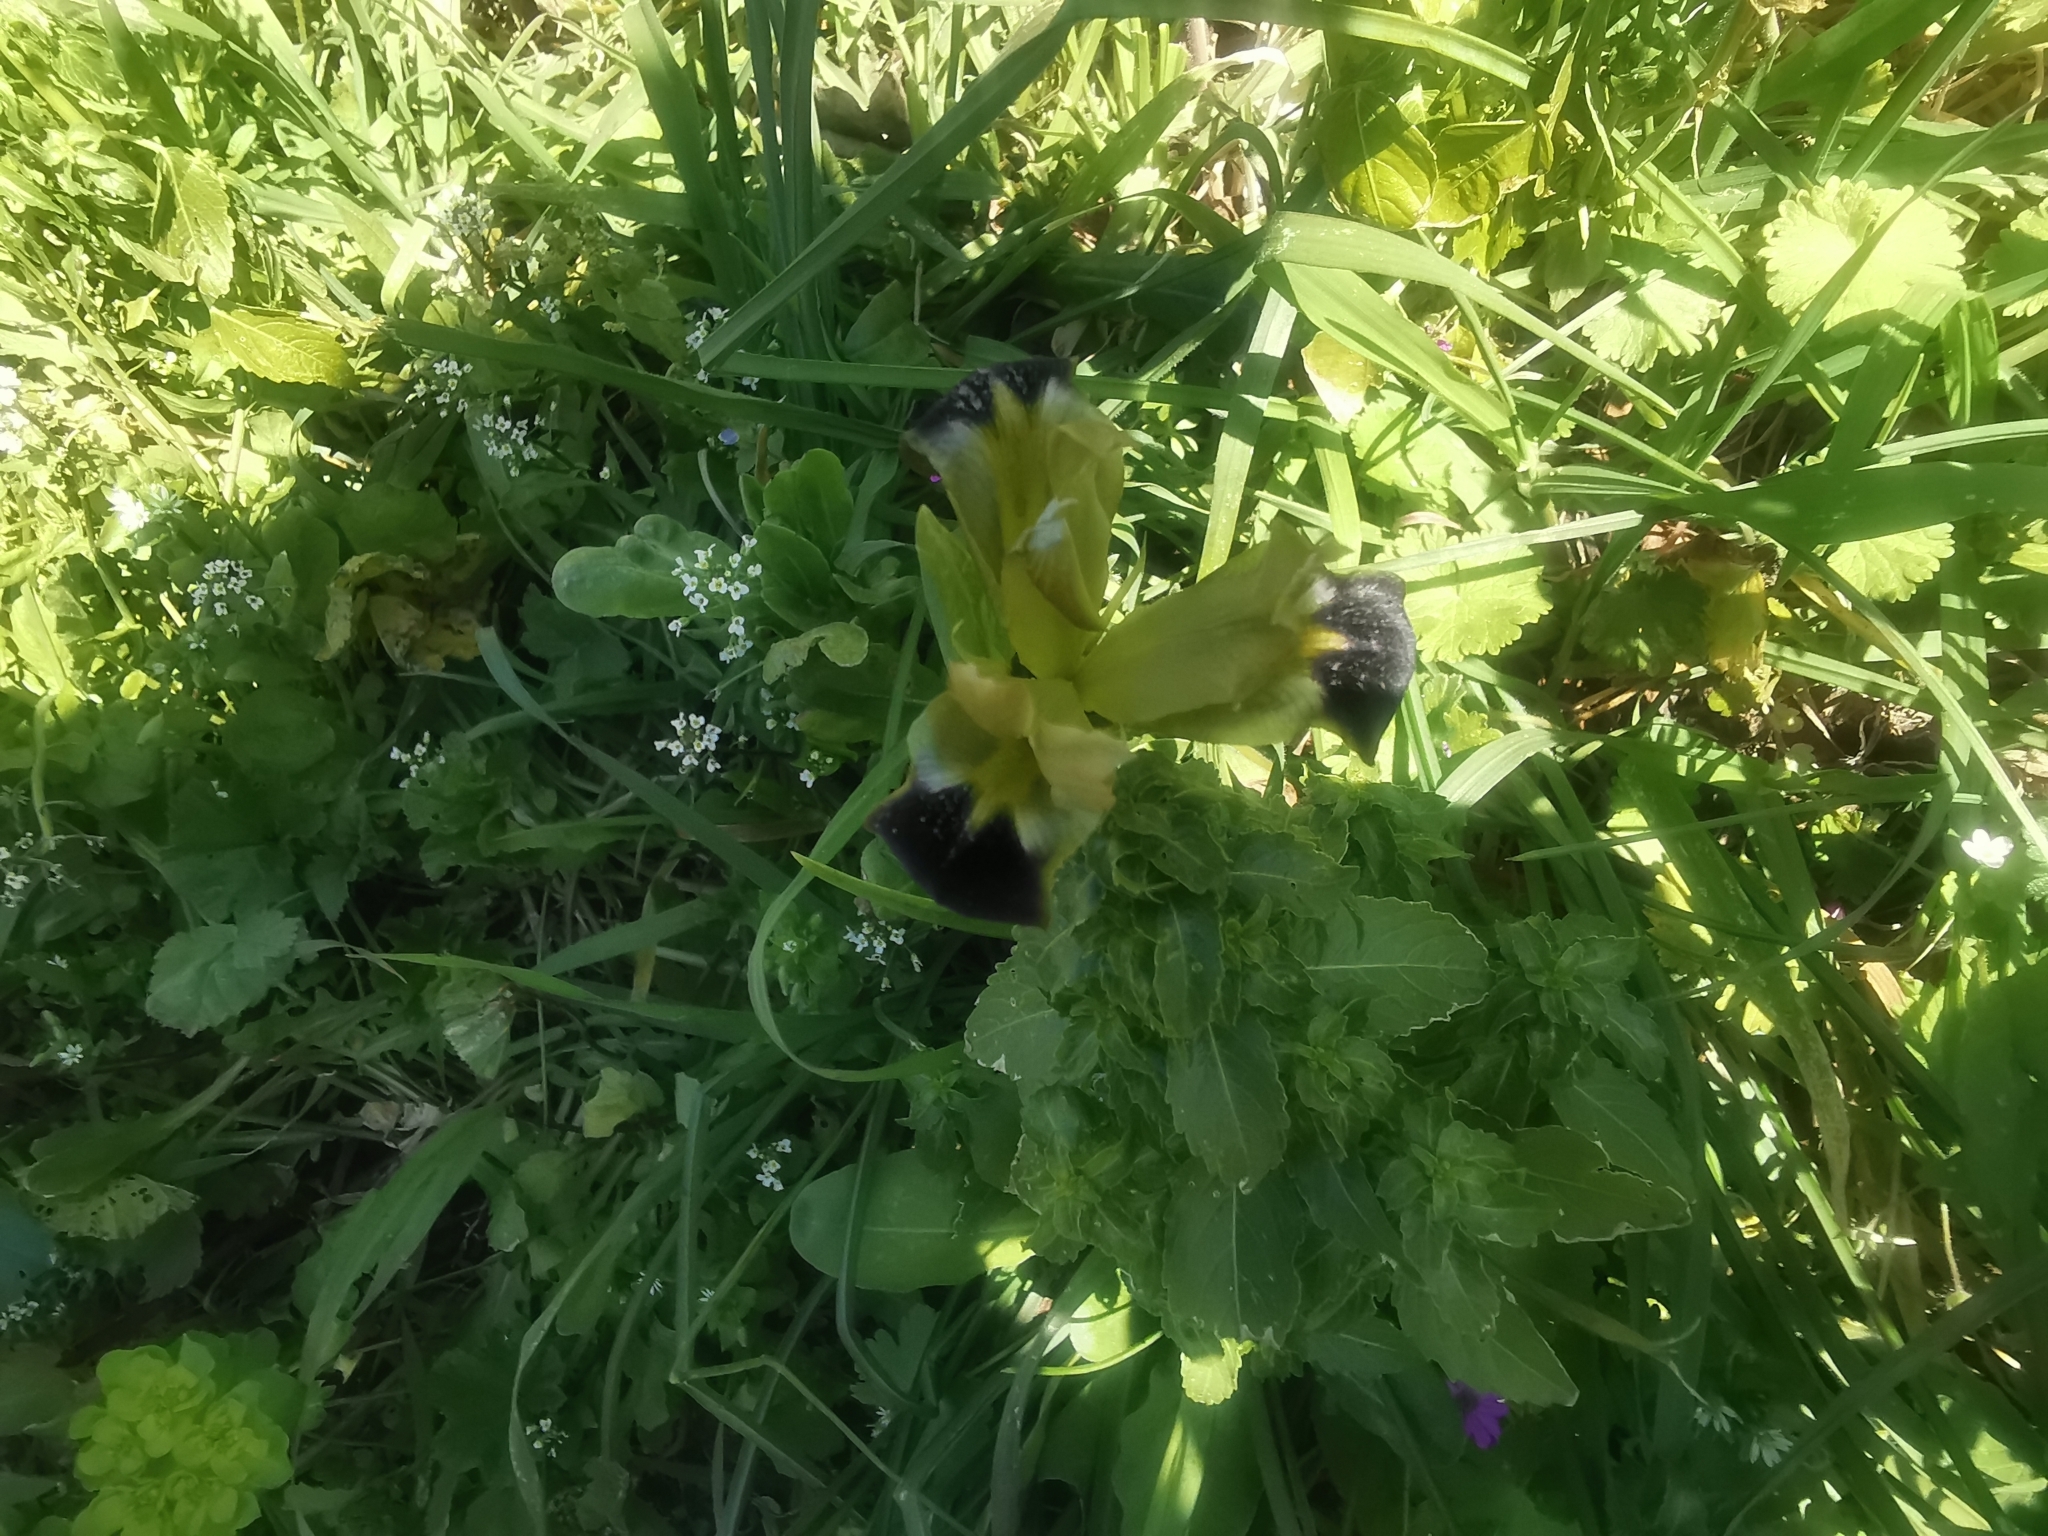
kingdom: Plantae
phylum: Tracheophyta
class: Liliopsida
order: Asparagales
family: Iridaceae
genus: Iris
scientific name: Iris tuberosa
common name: Snake's-head iris
